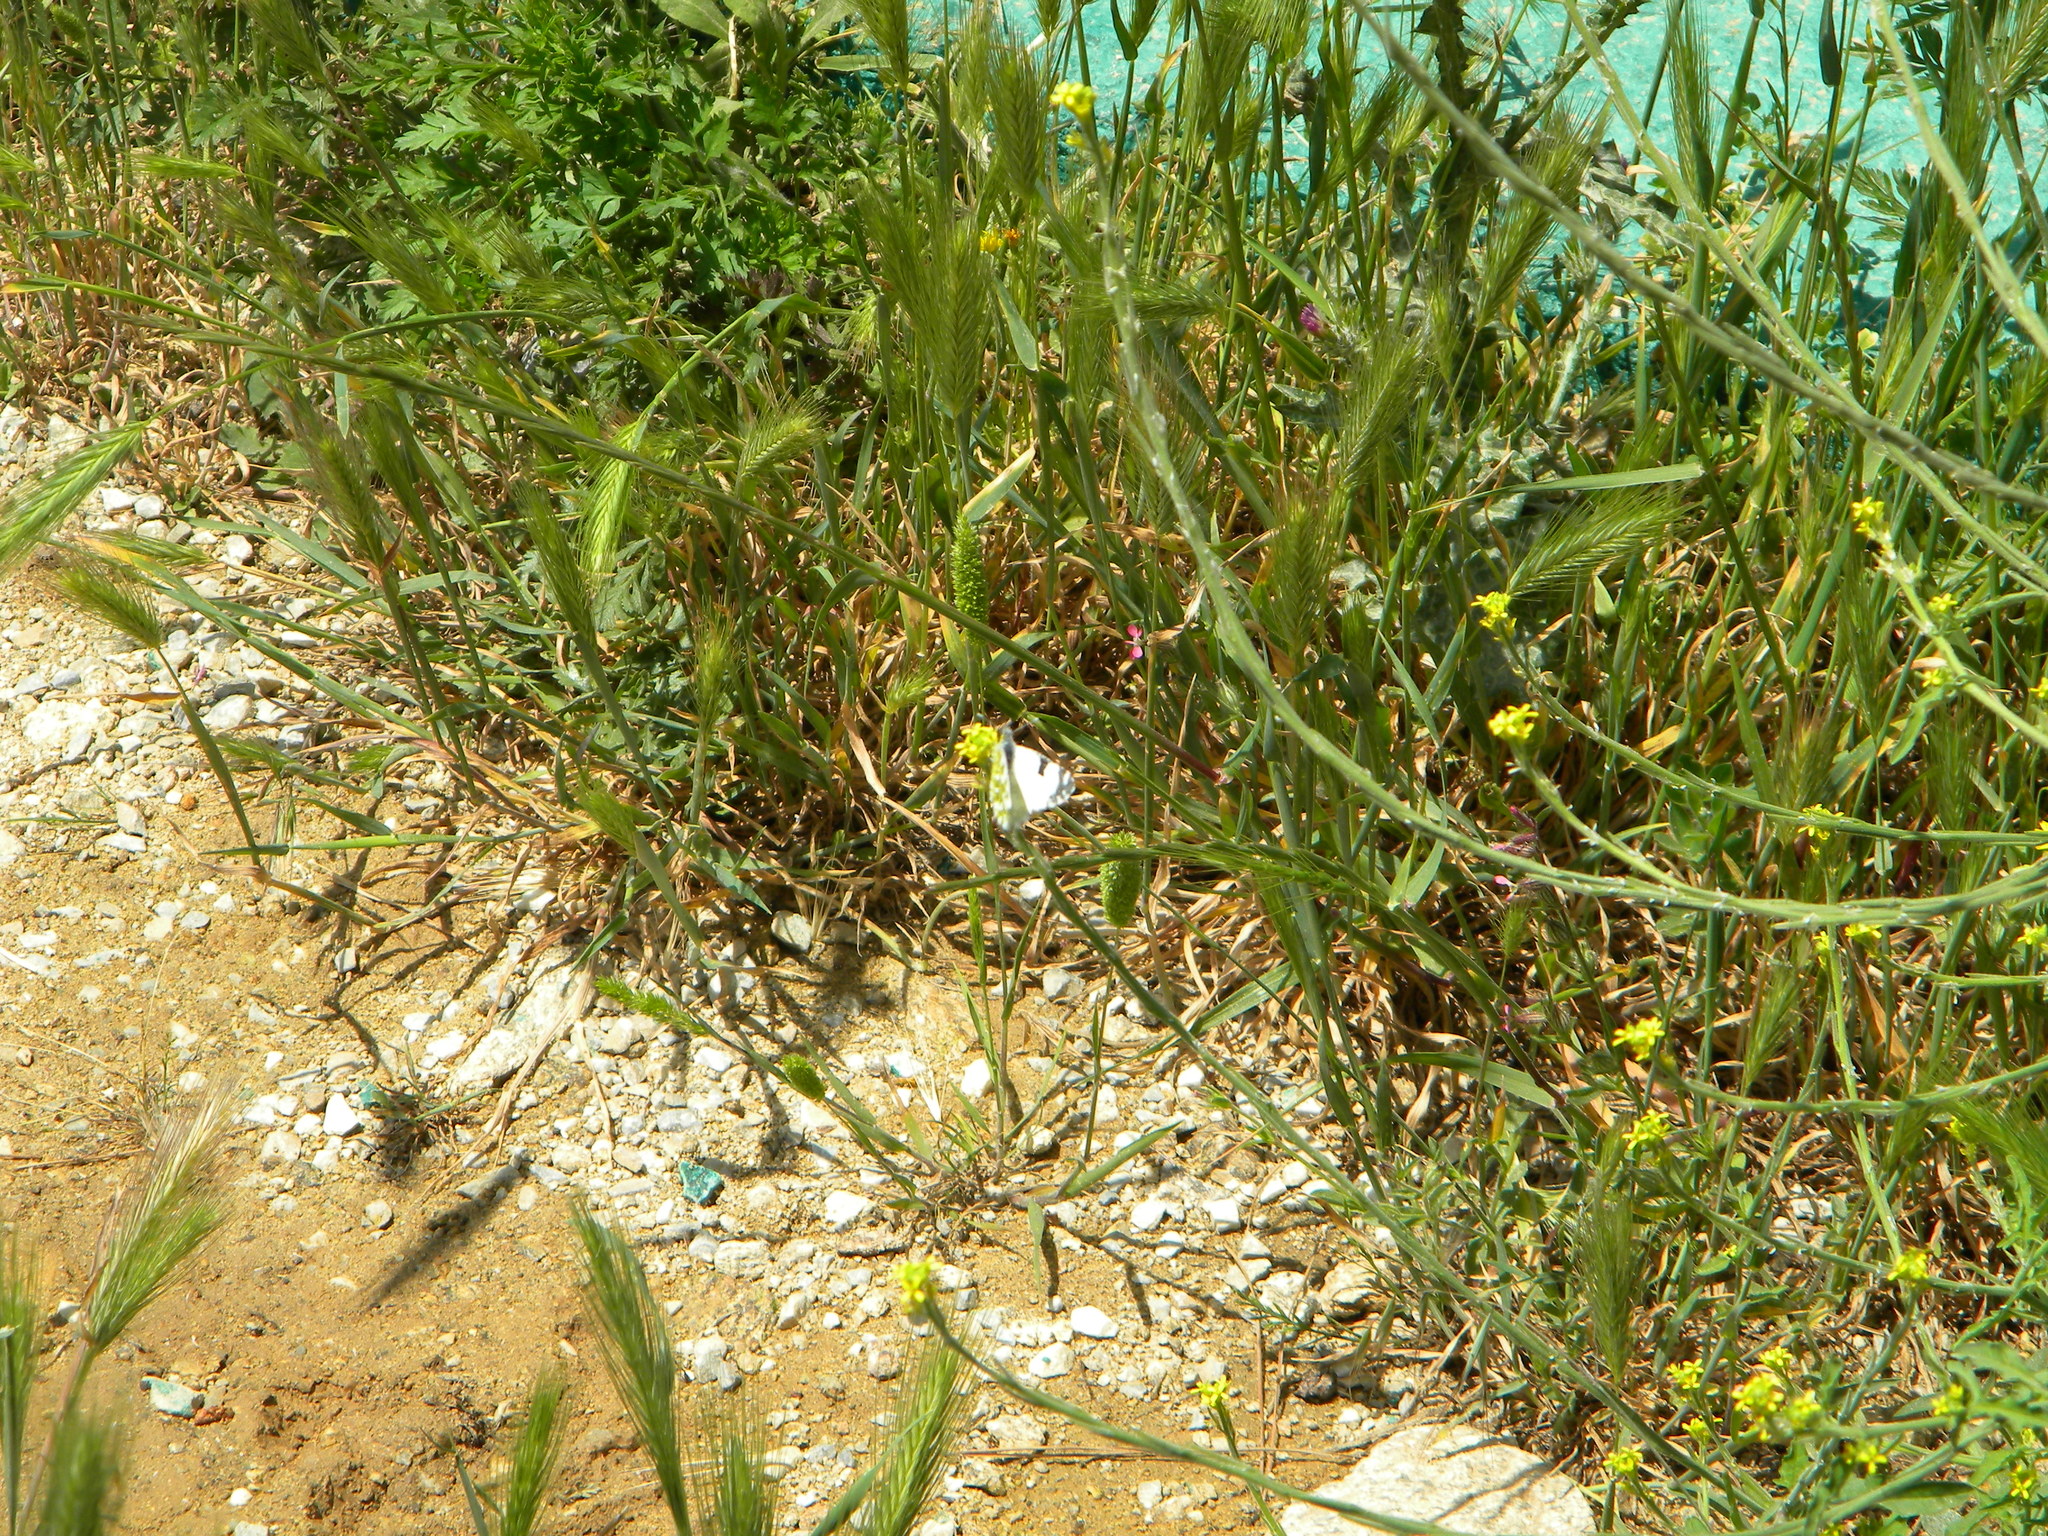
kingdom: Animalia
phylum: Arthropoda
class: Insecta
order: Lepidoptera
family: Pieridae
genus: Euchloe
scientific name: Euchloe ausonia
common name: Eastern dappled white
